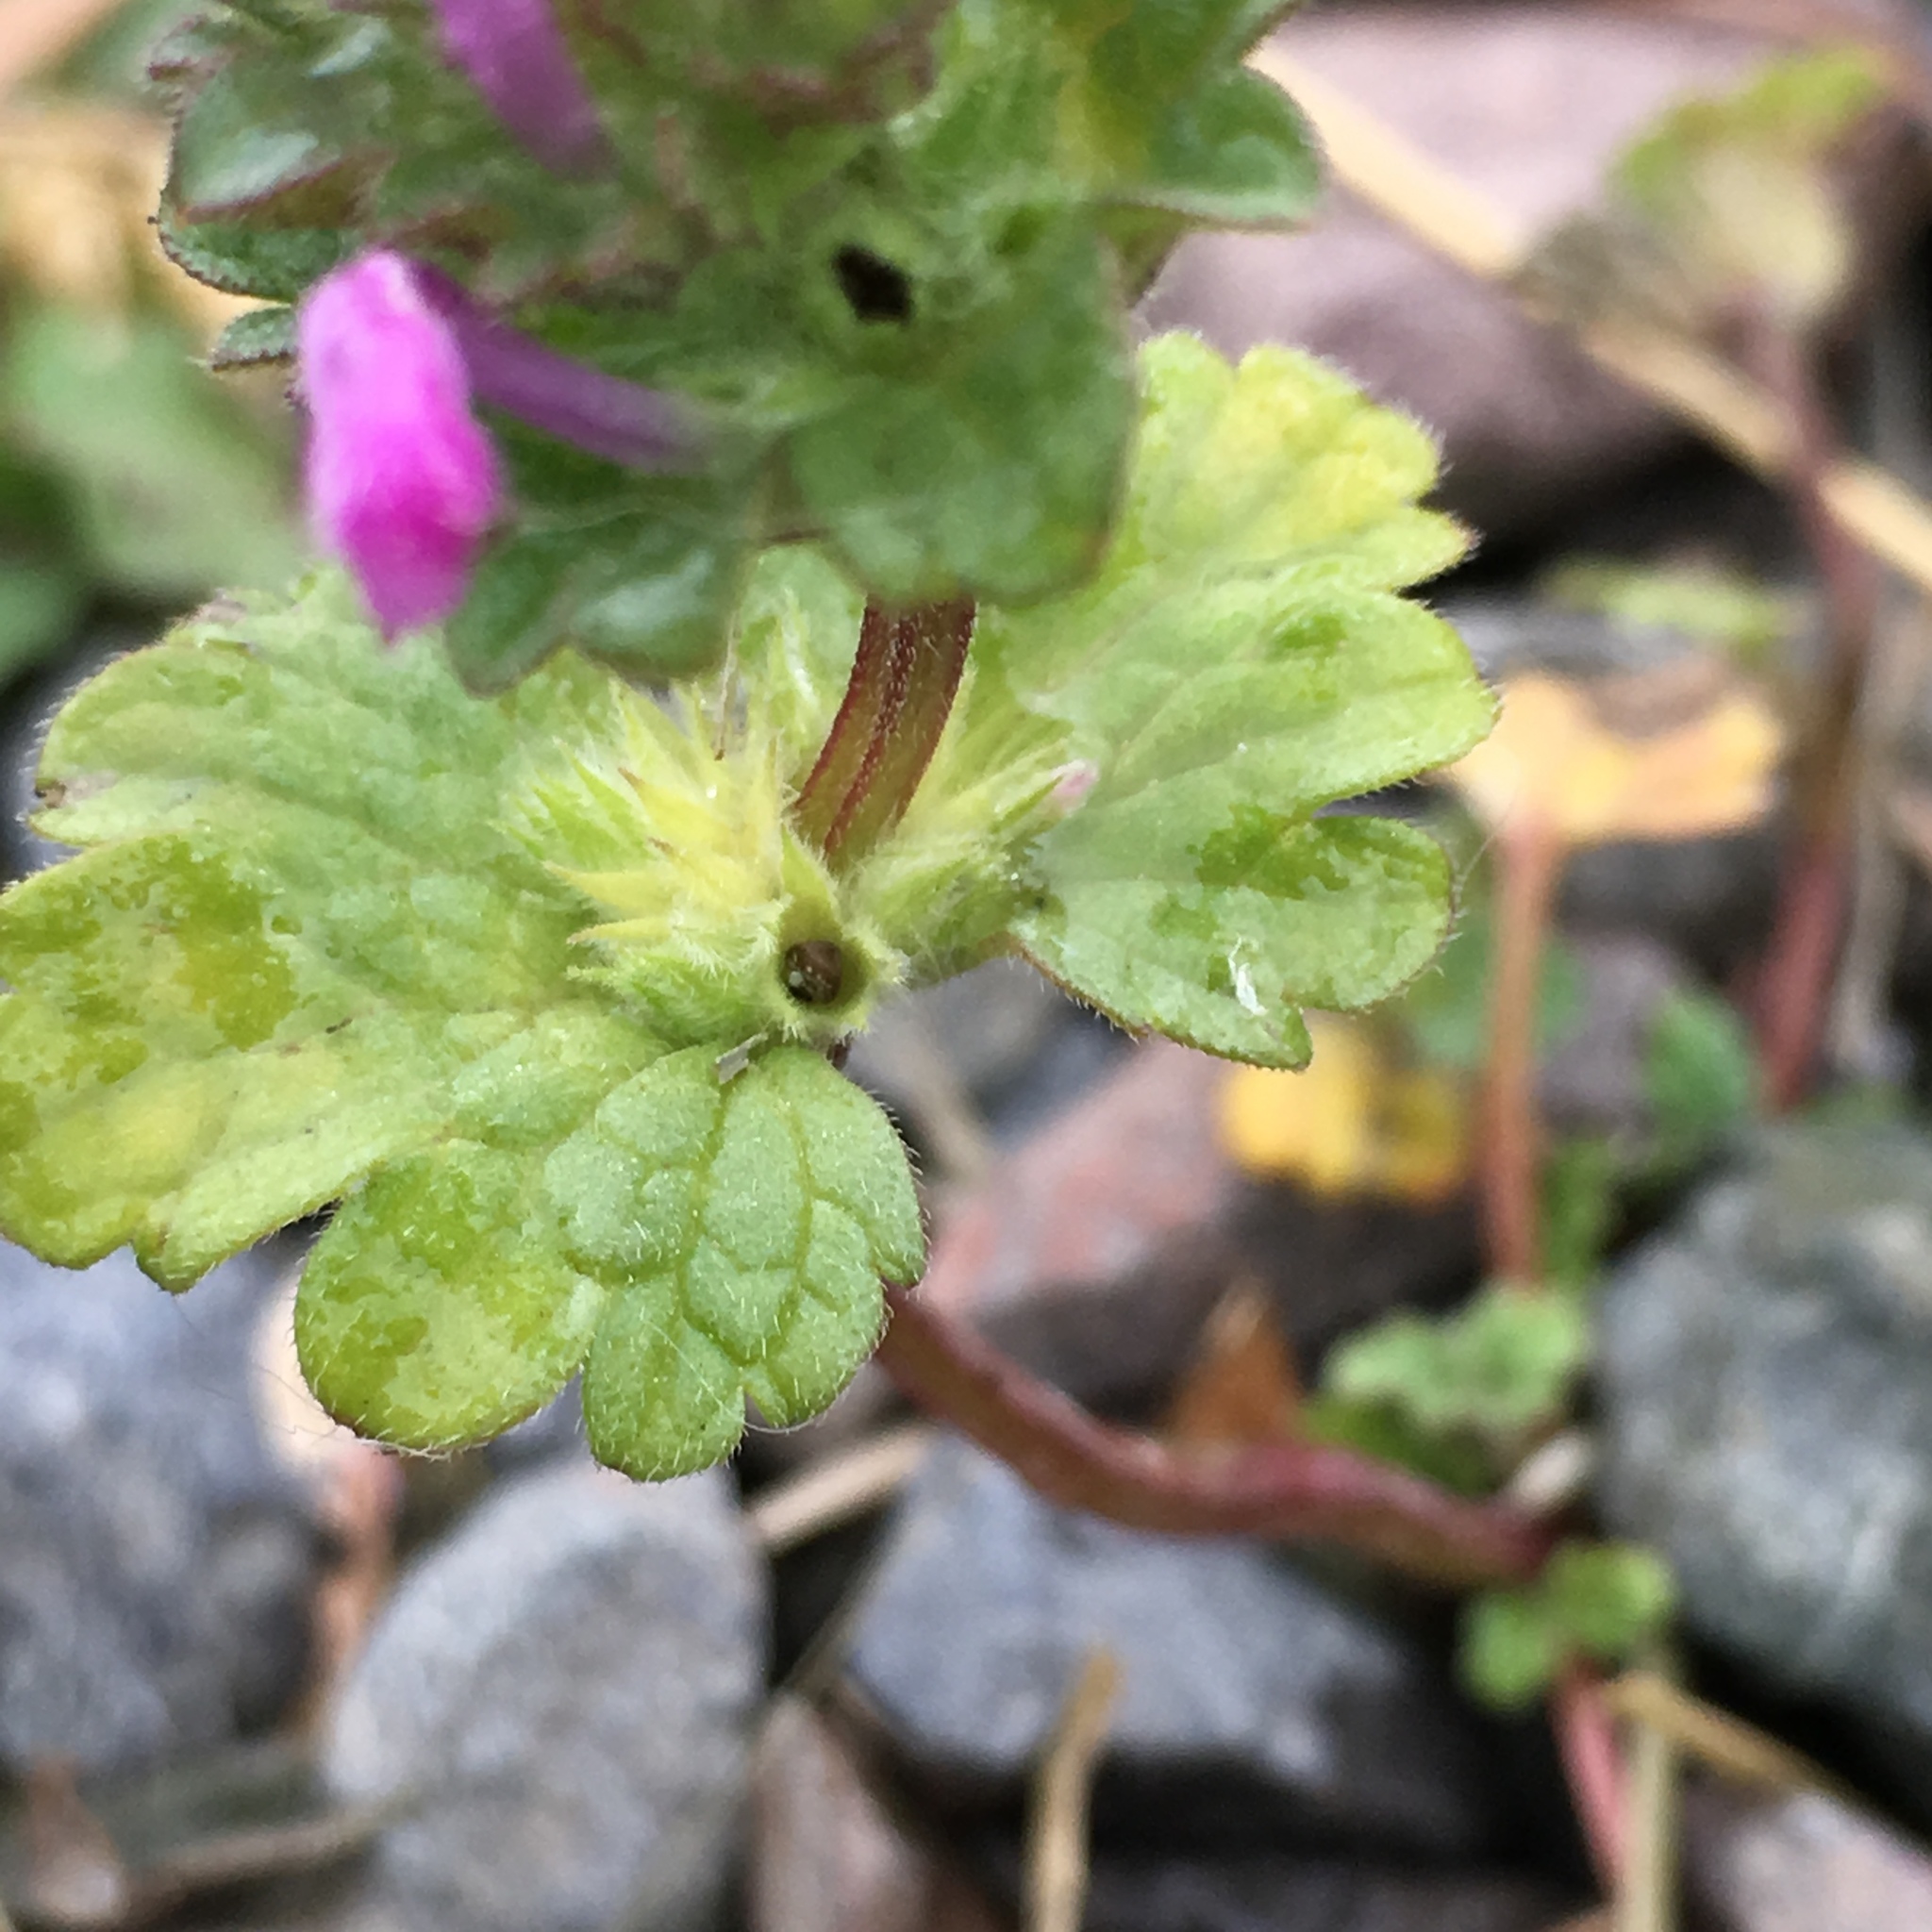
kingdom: Plantae
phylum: Tracheophyta
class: Magnoliopsida
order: Lamiales
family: Lamiaceae
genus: Lamium
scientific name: Lamium amplexicaule
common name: Henbit dead-nettle
